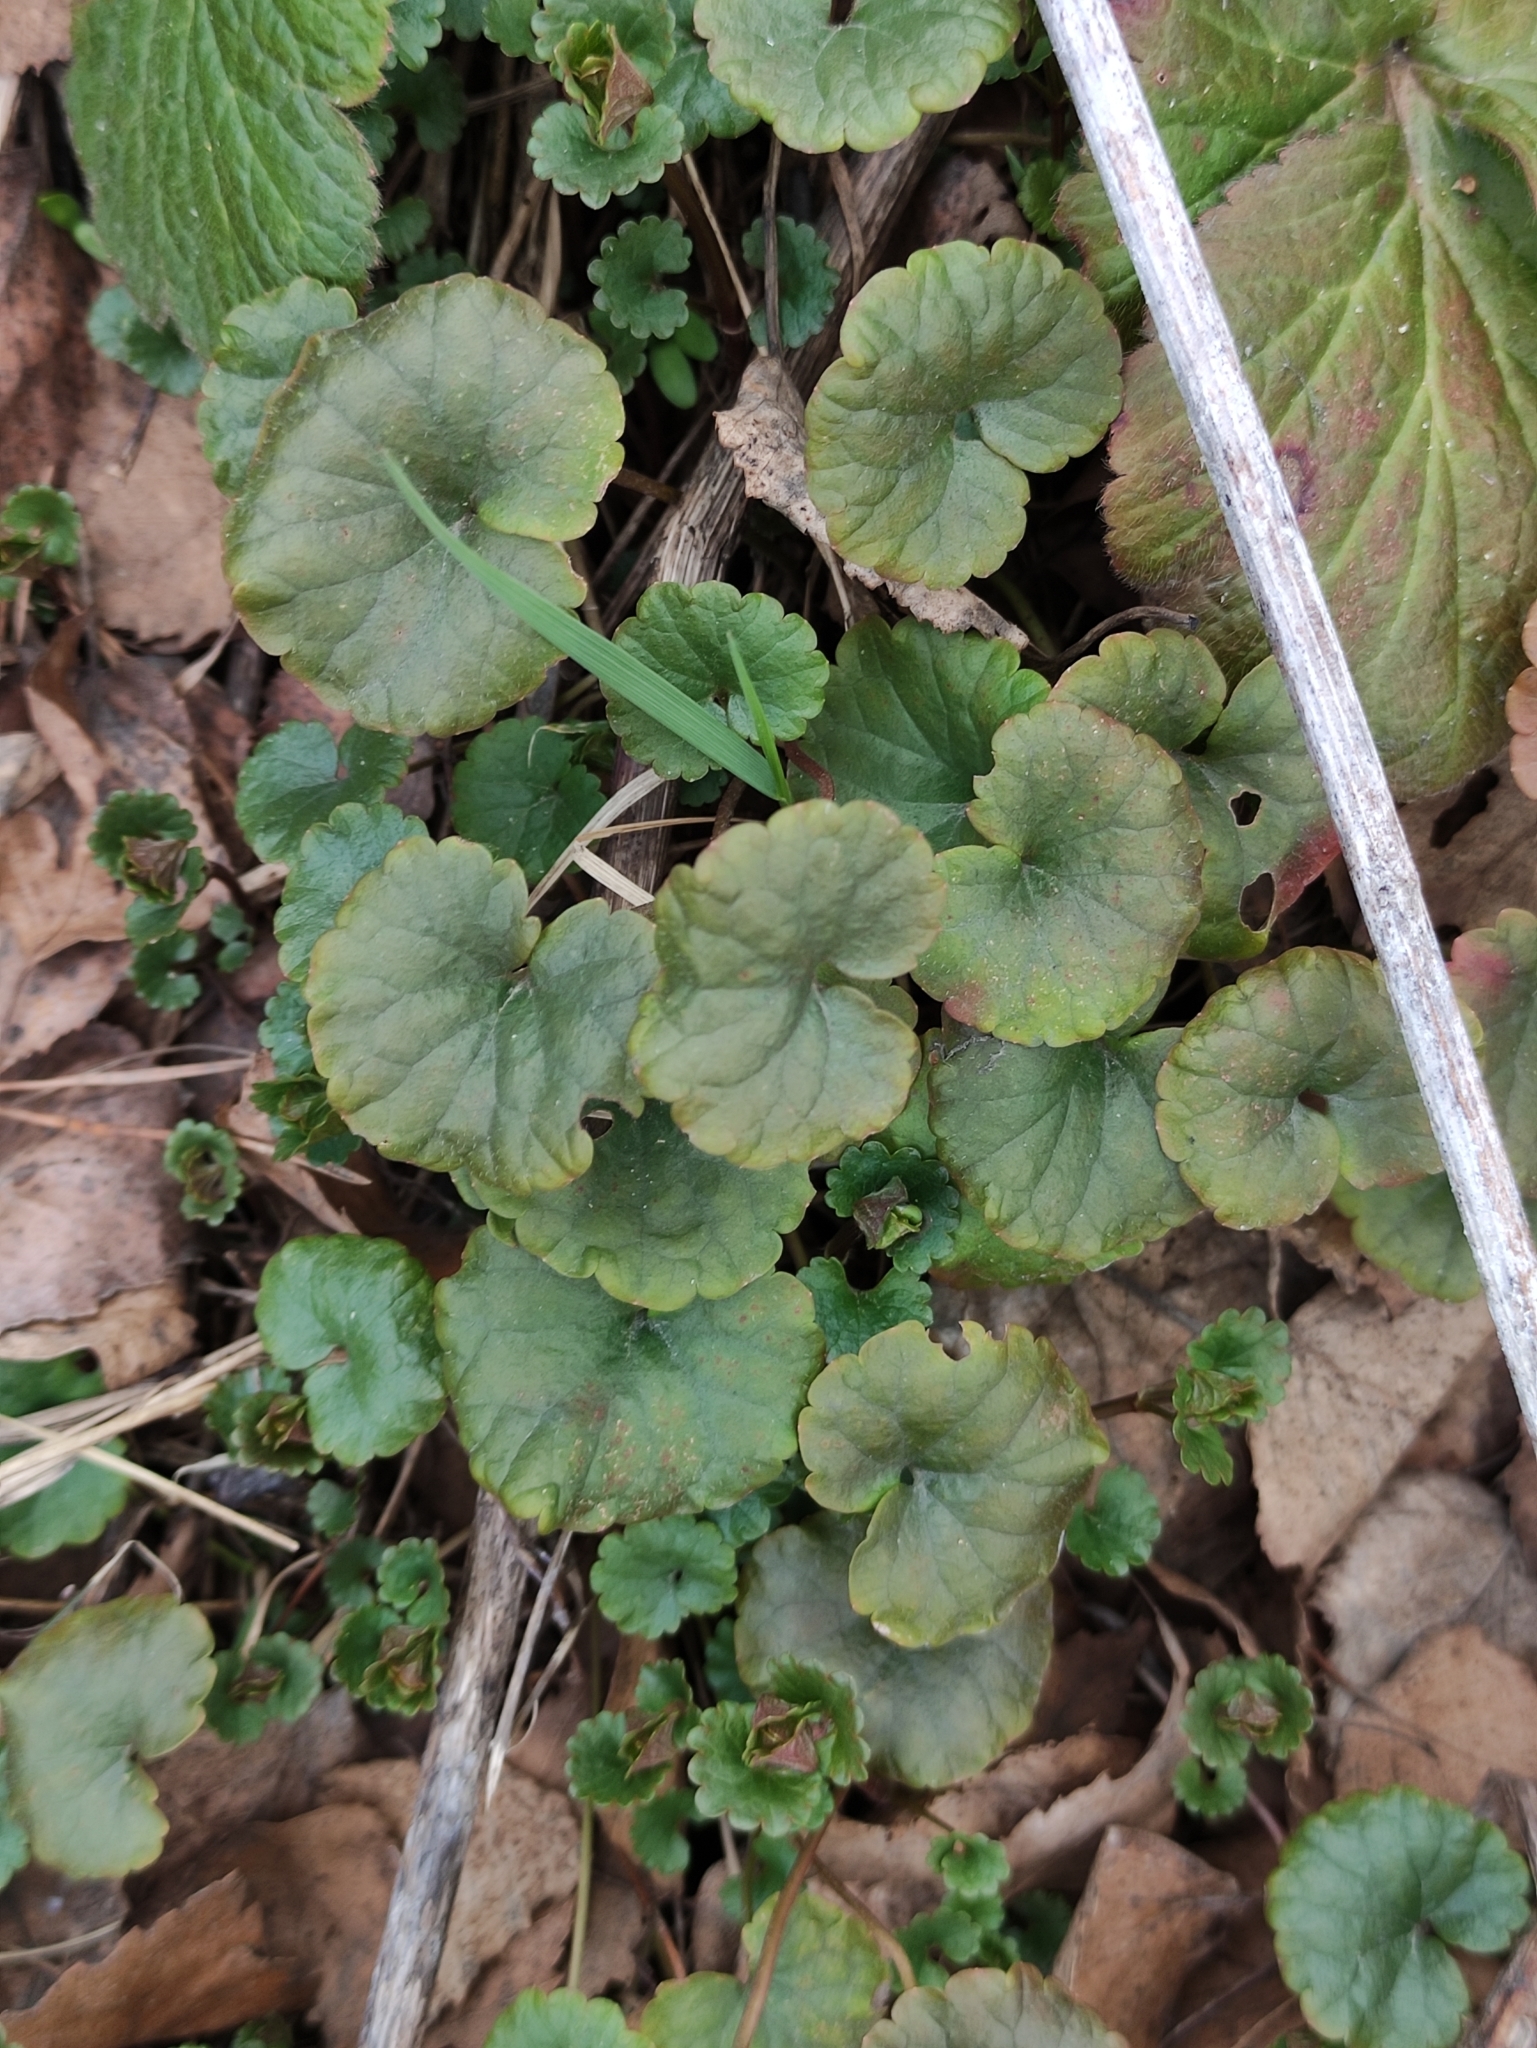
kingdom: Plantae
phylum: Tracheophyta
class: Magnoliopsida
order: Lamiales
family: Lamiaceae
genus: Glechoma
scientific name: Glechoma hederacea
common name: Ground ivy
